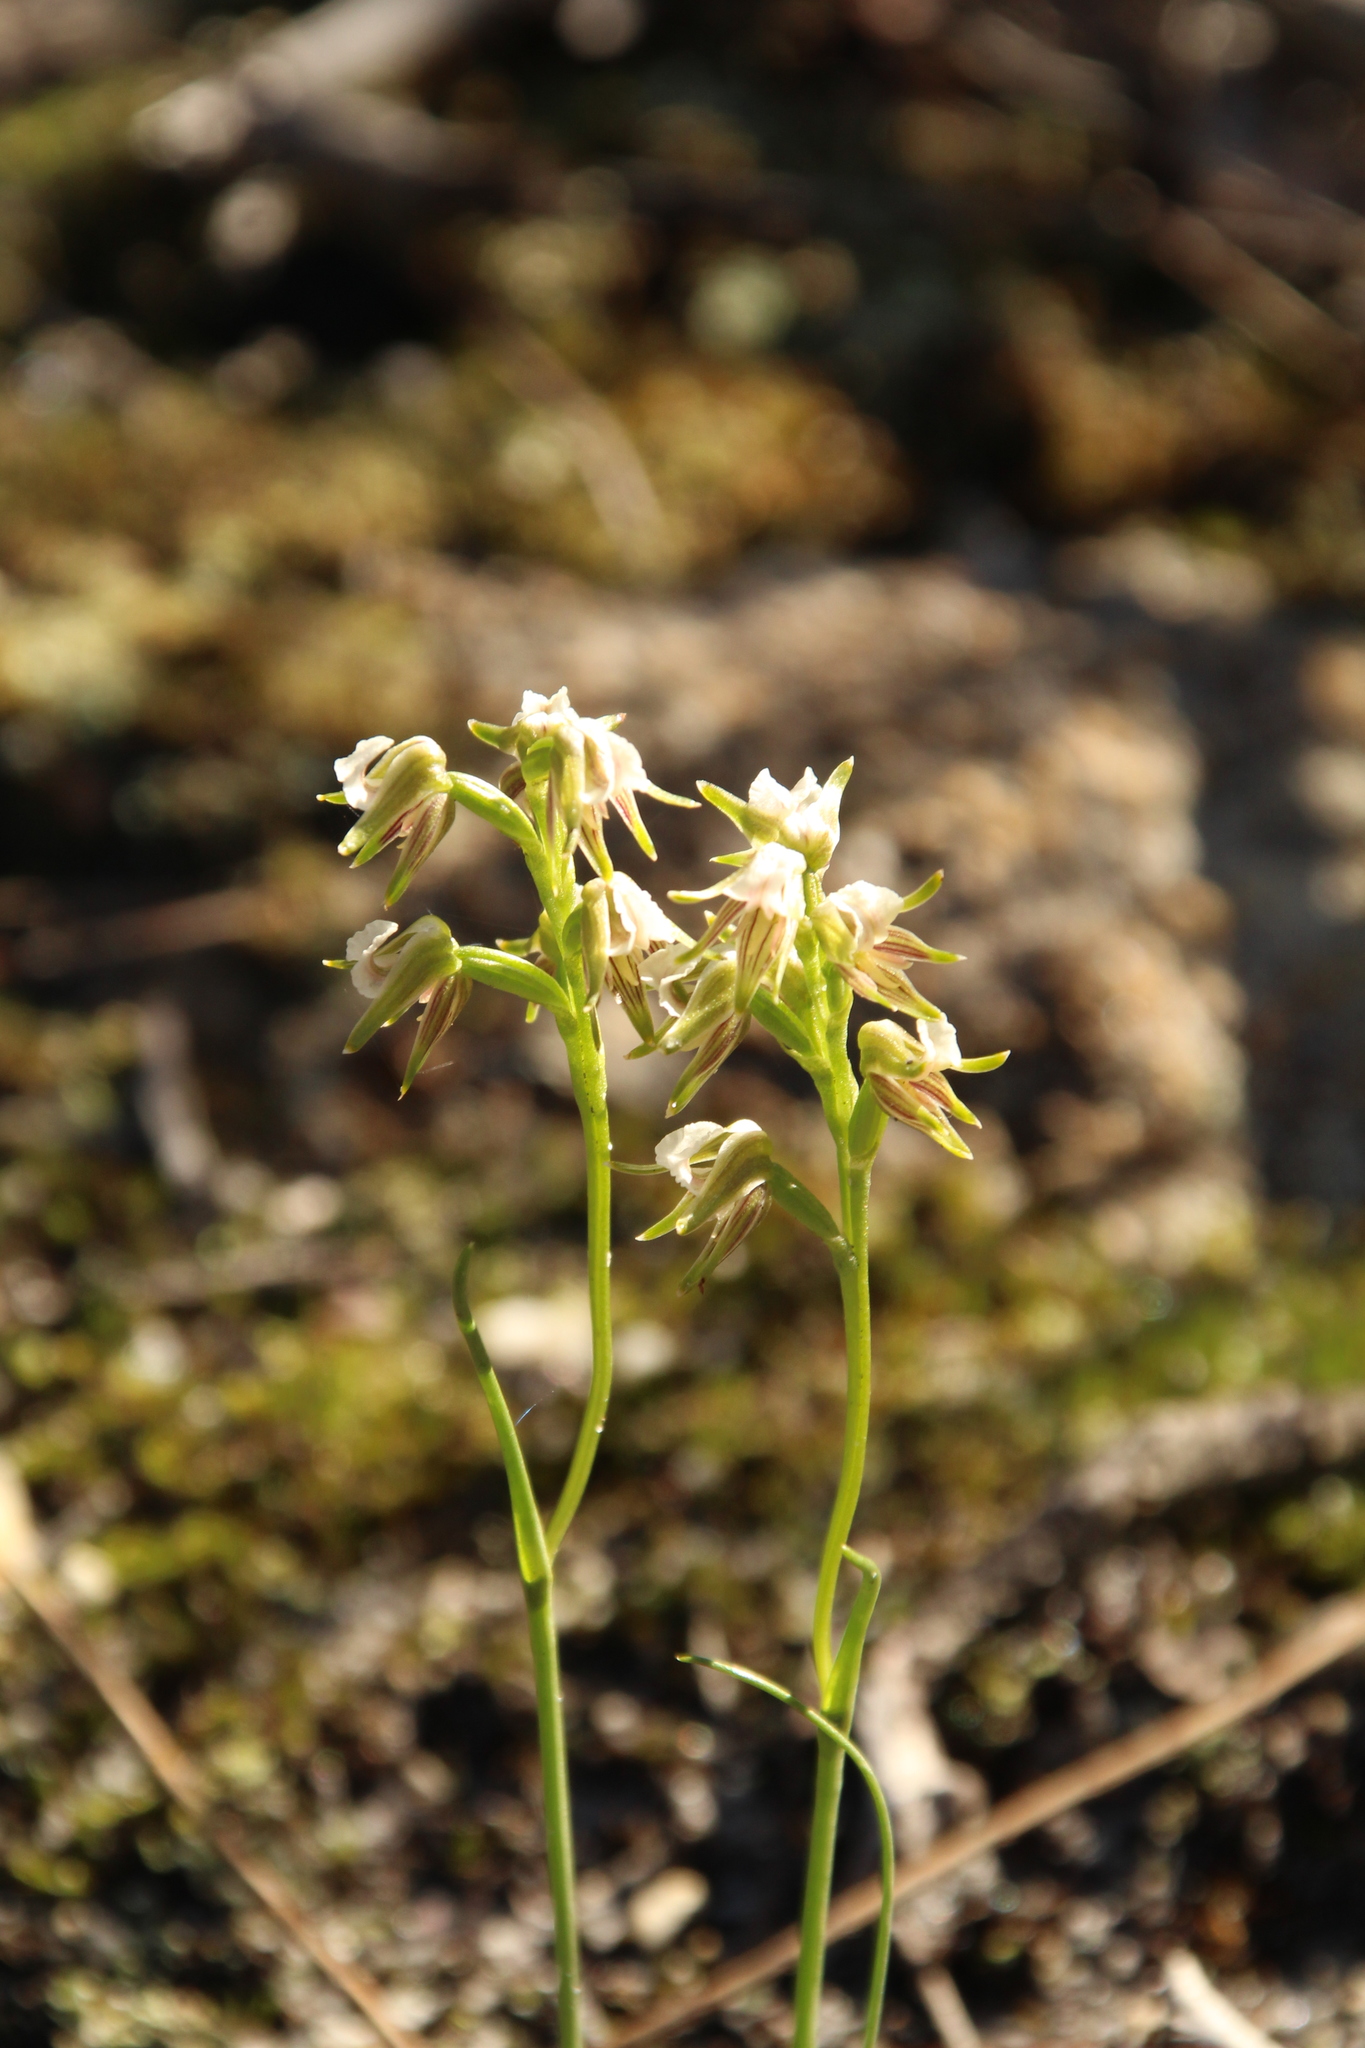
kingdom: Plantae
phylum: Tracheophyta
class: Liliopsida
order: Asparagales
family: Orchidaceae
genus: Prasophyllum
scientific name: Prasophyllum parvifolium
